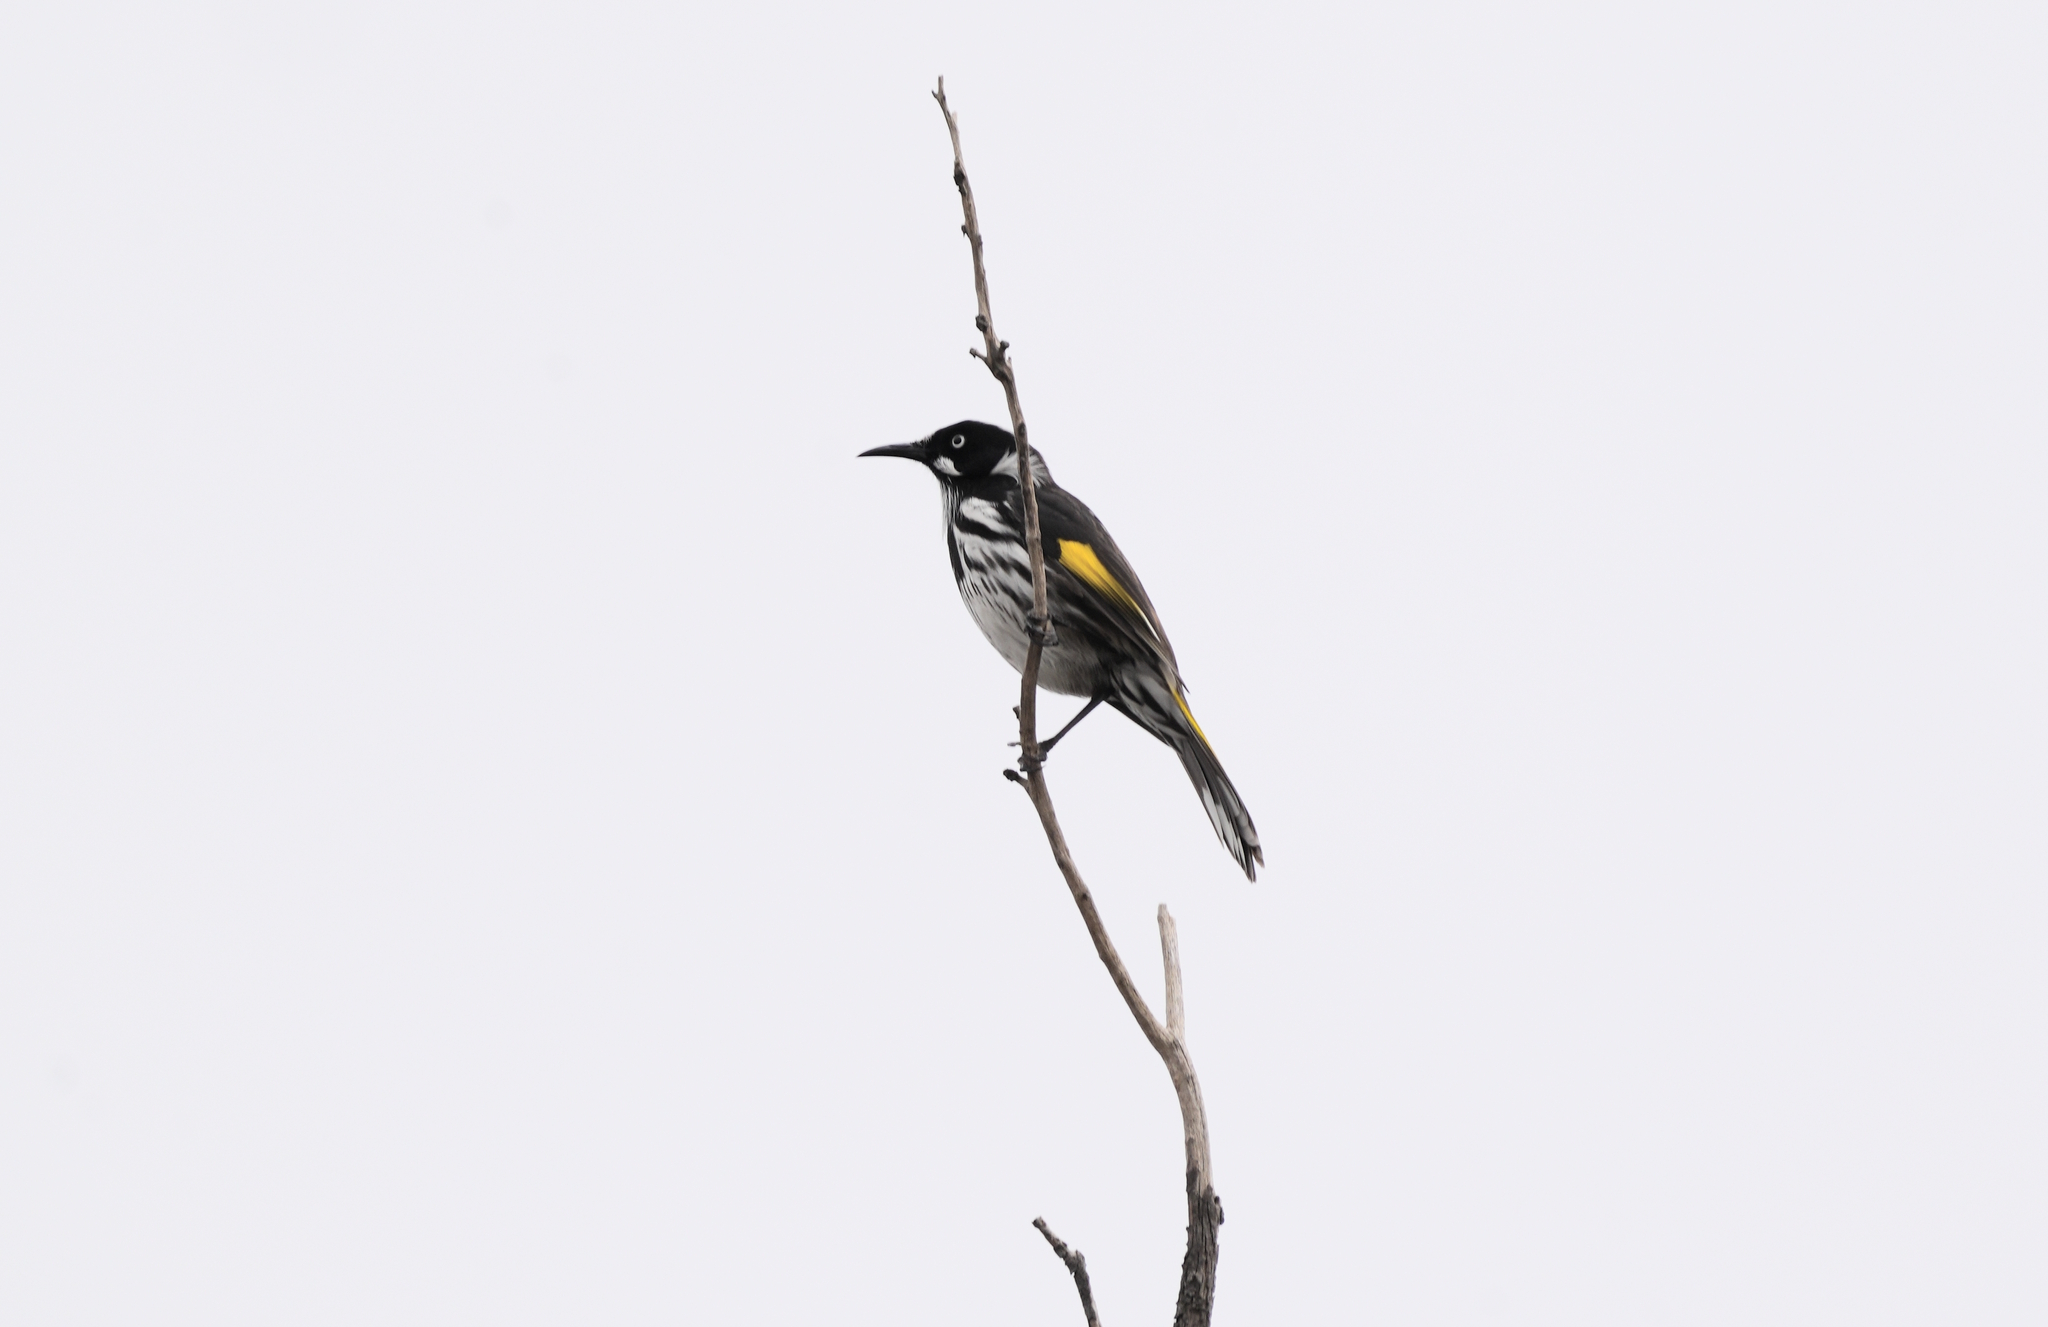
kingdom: Animalia
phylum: Chordata
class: Aves
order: Passeriformes
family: Meliphagidae
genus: Phylidonyris
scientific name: Phylidonyris novaehollandiae
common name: New holland honeyeater
